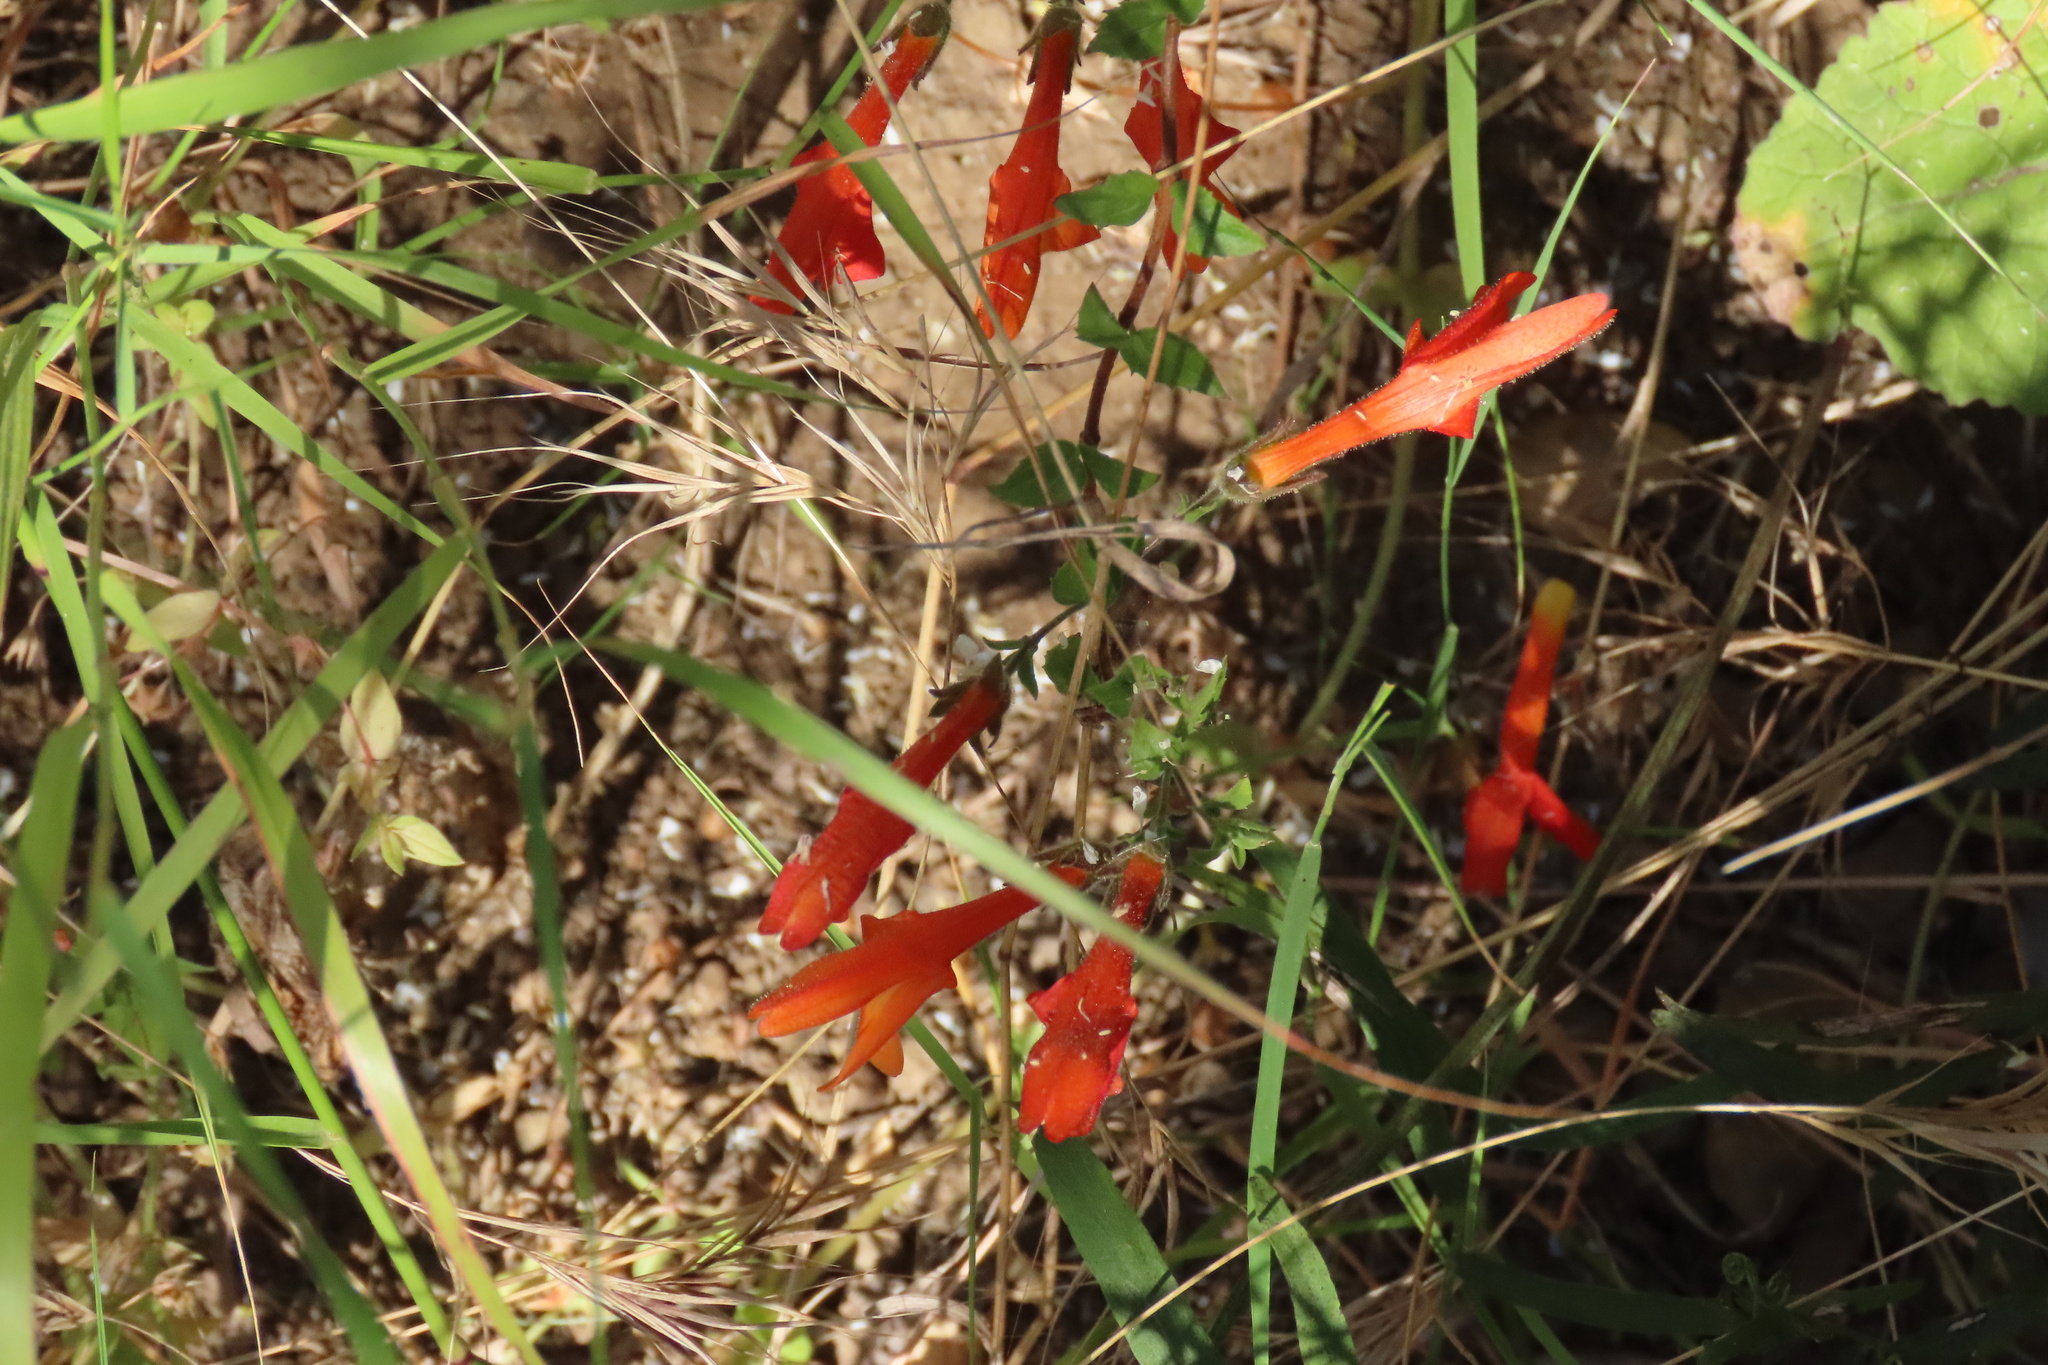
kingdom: Plantae
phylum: Tracheophyta
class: Magnoliopsida
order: Lamiales
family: Plantaginaceae
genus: Keckiella
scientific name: Keckiella cordifolia
